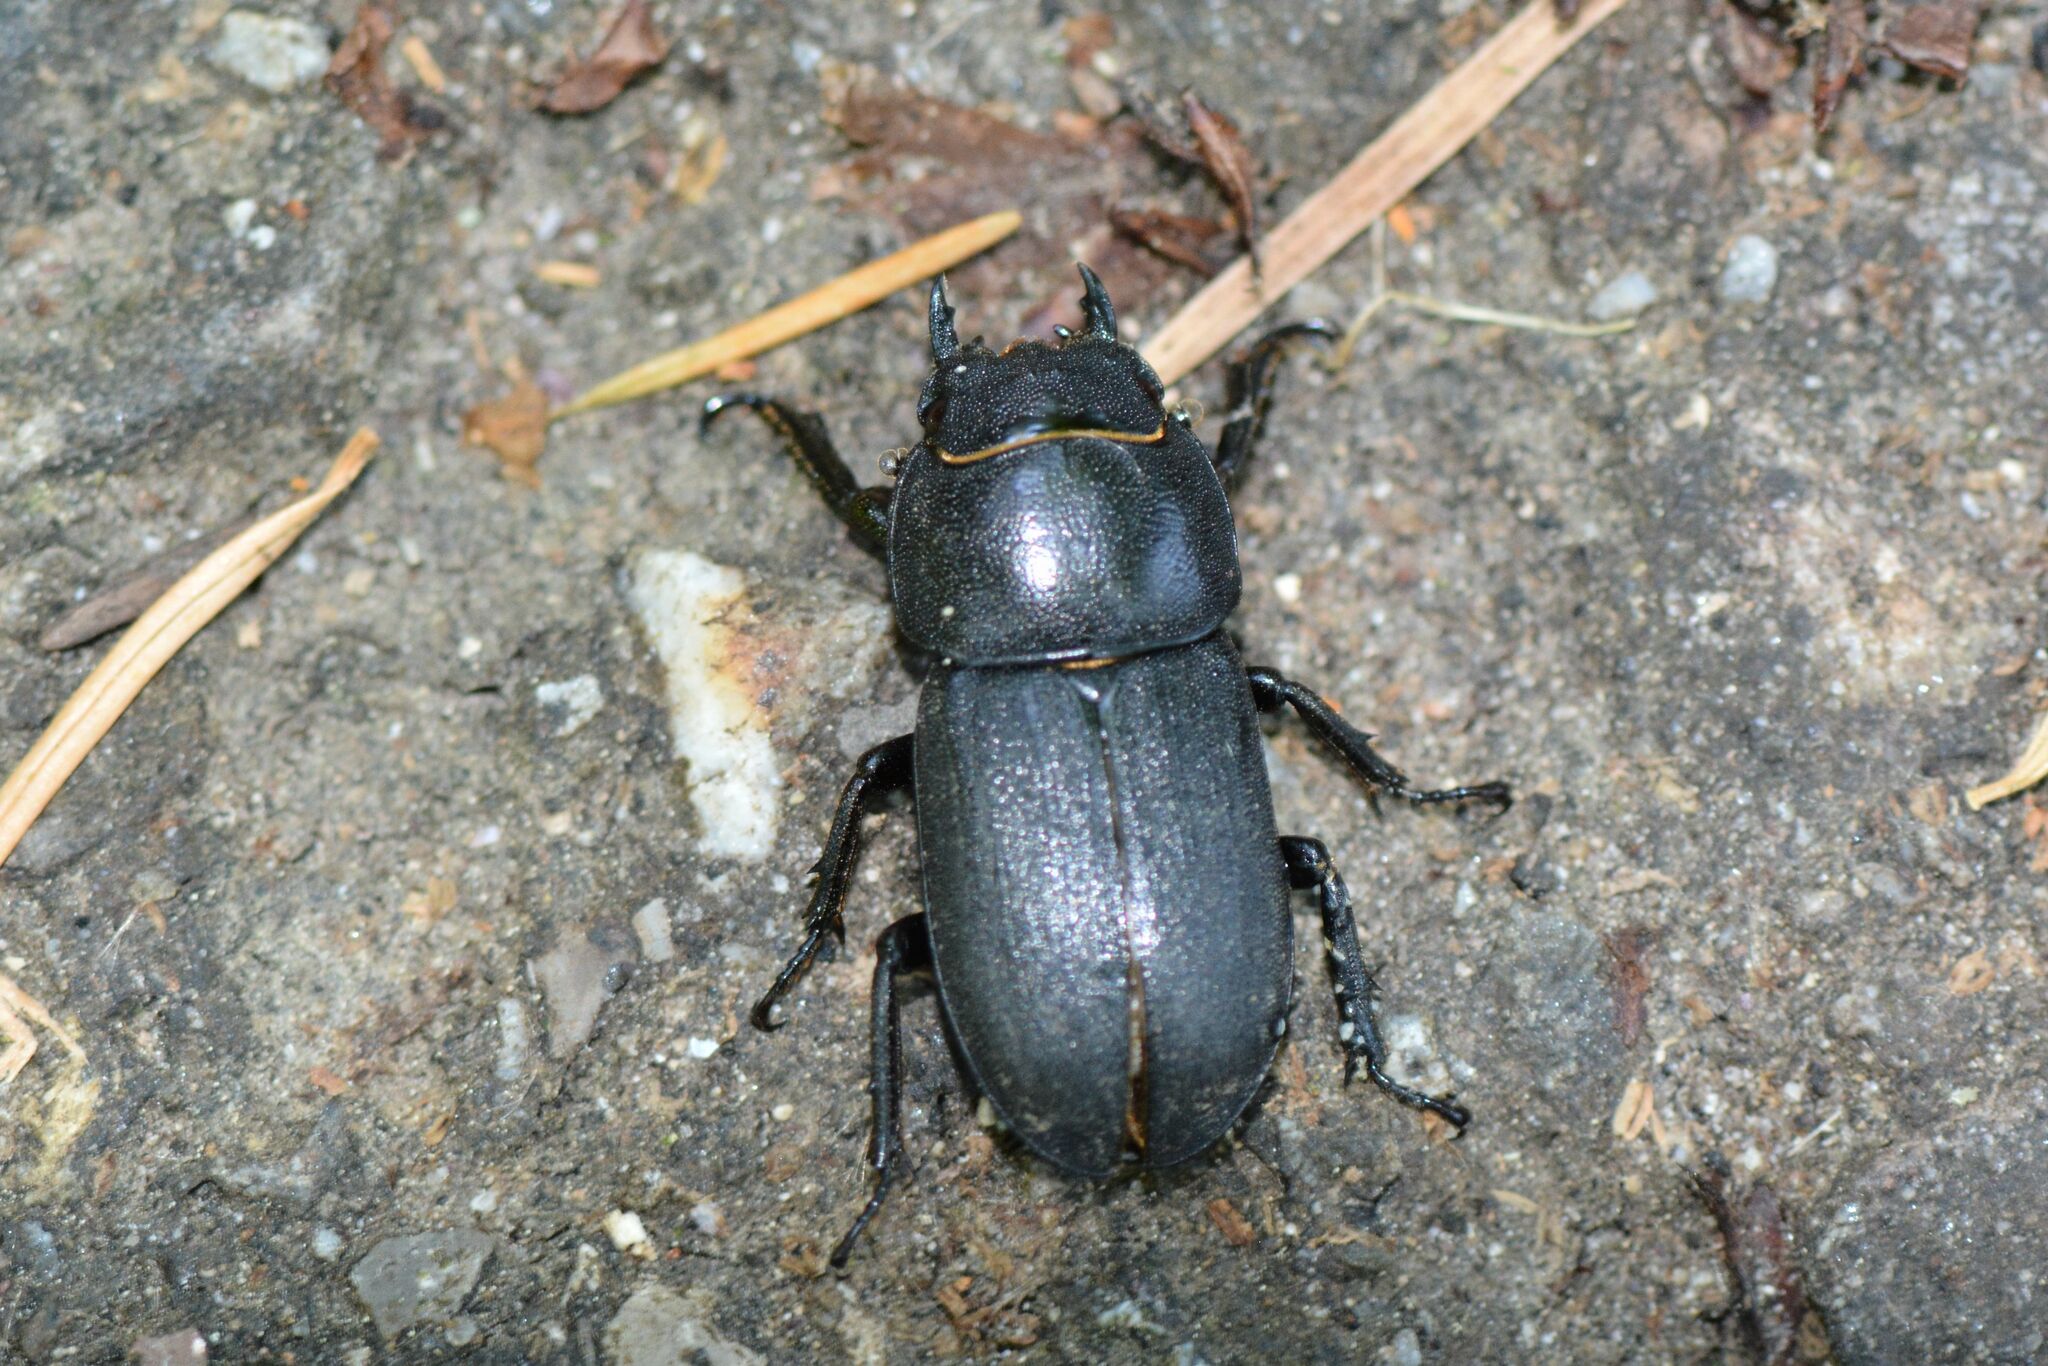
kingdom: Animalia
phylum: Arthropoda
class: Insecta
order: Coleoptera
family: Lucanidae
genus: Dorcus
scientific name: Dorcus parallelipipedus
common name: Lesser stag beetle
